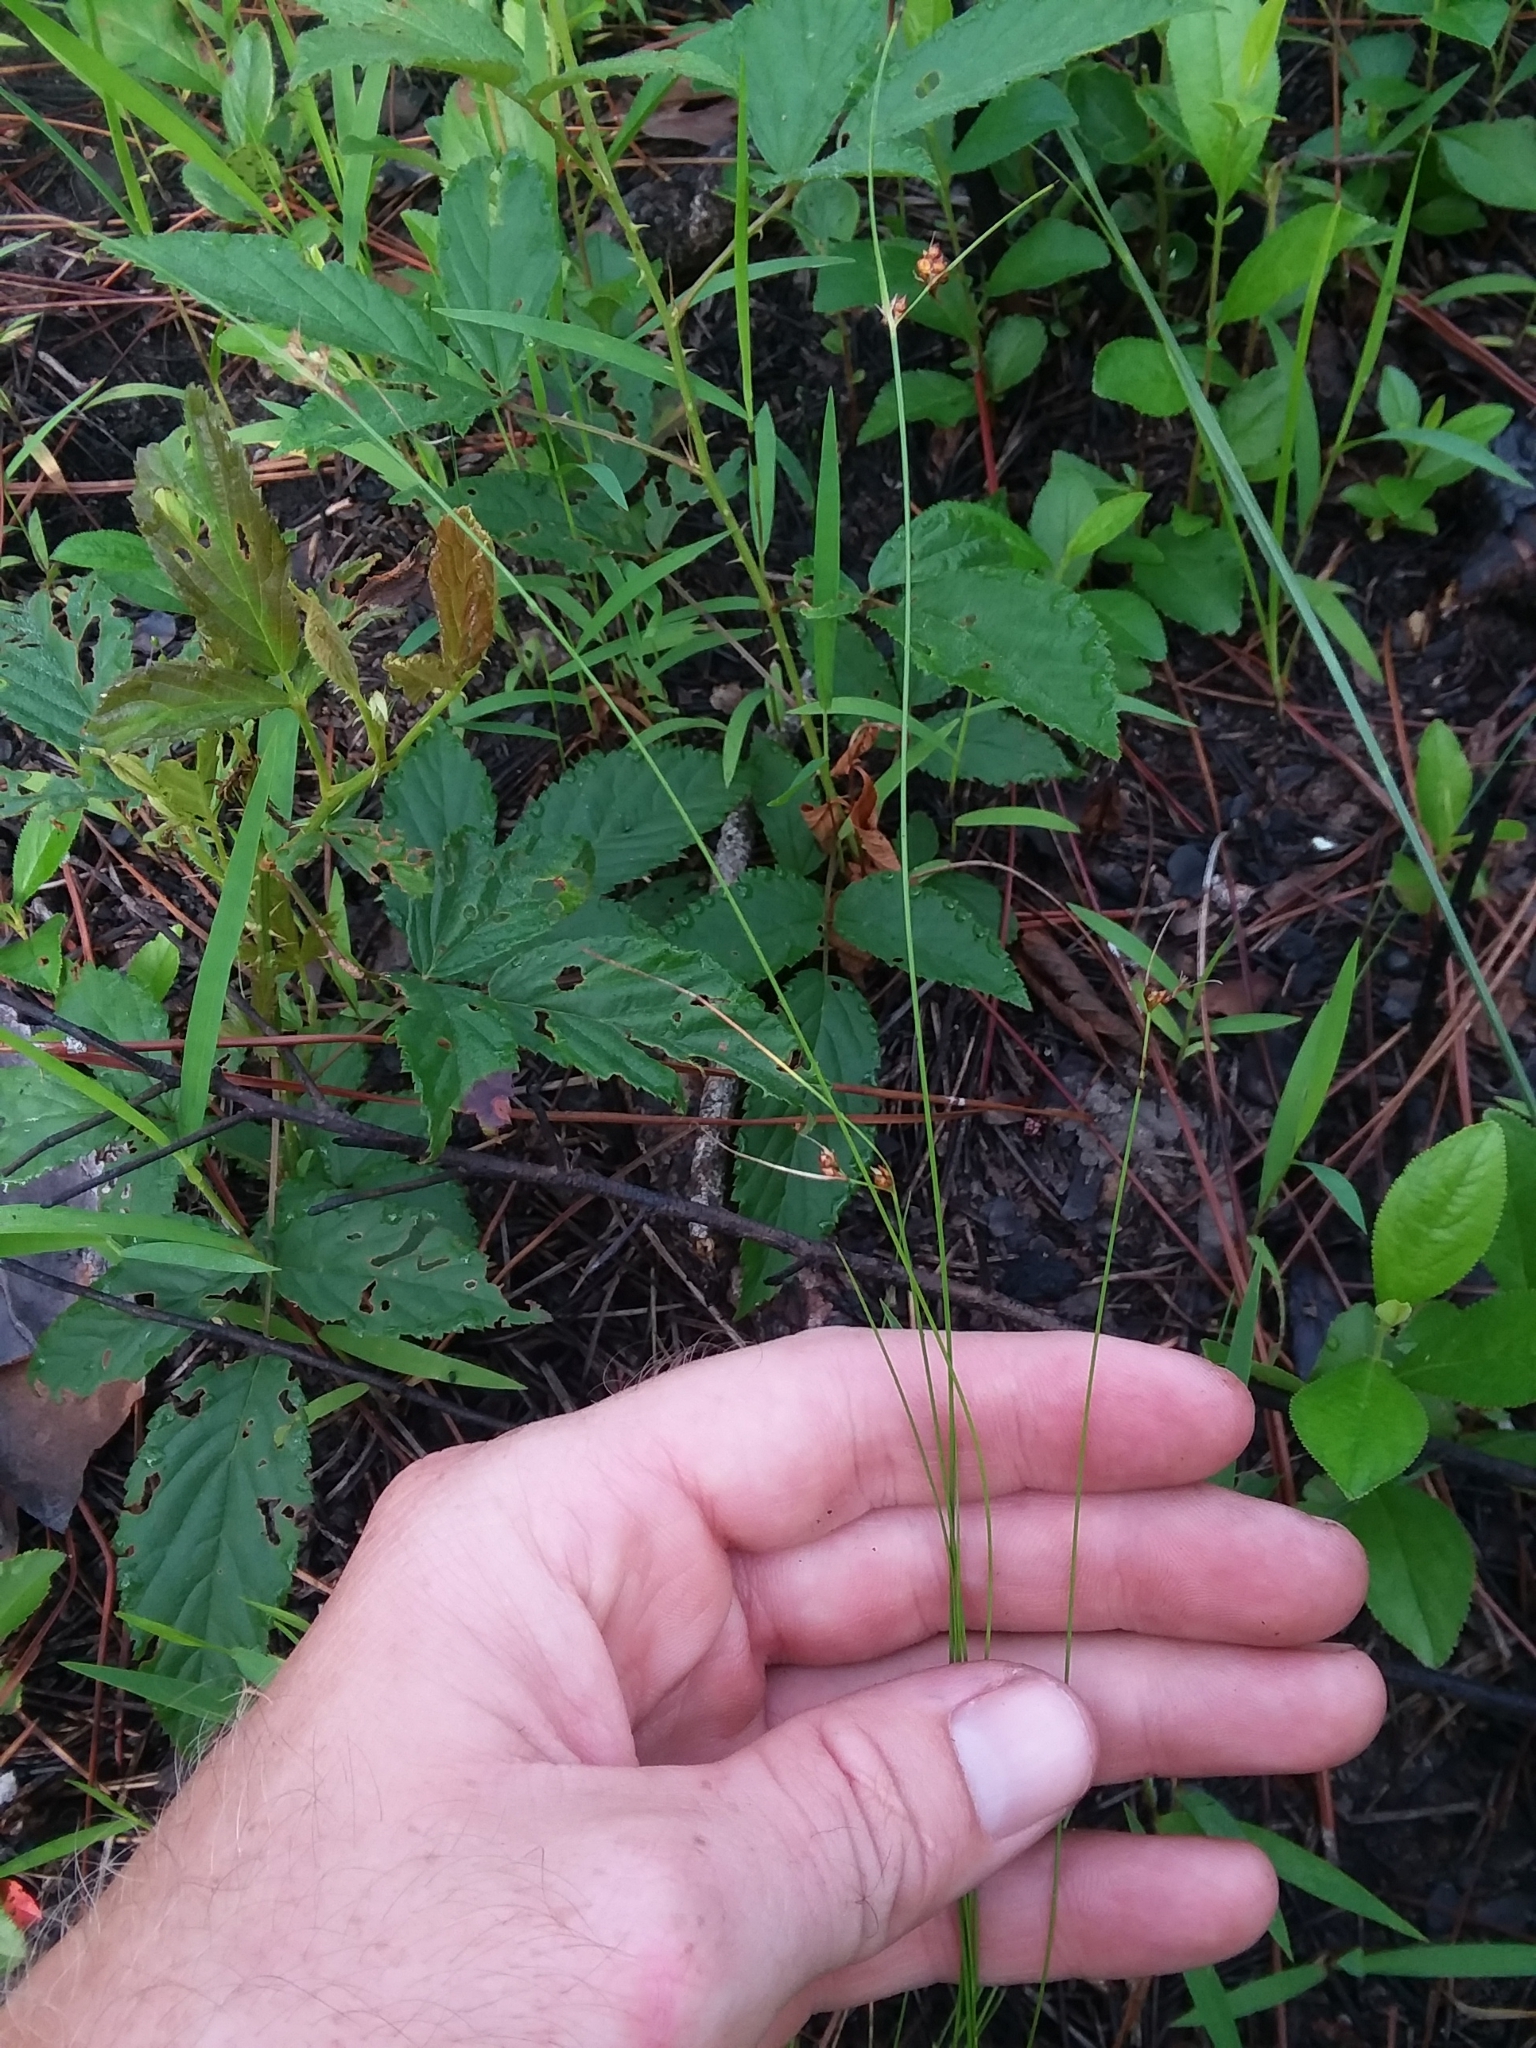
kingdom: Plantae
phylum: Tracheophyta
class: Liliopsida
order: Poales
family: Cyperaceae
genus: Rhynchospora
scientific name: Rhynchospora plumosa
